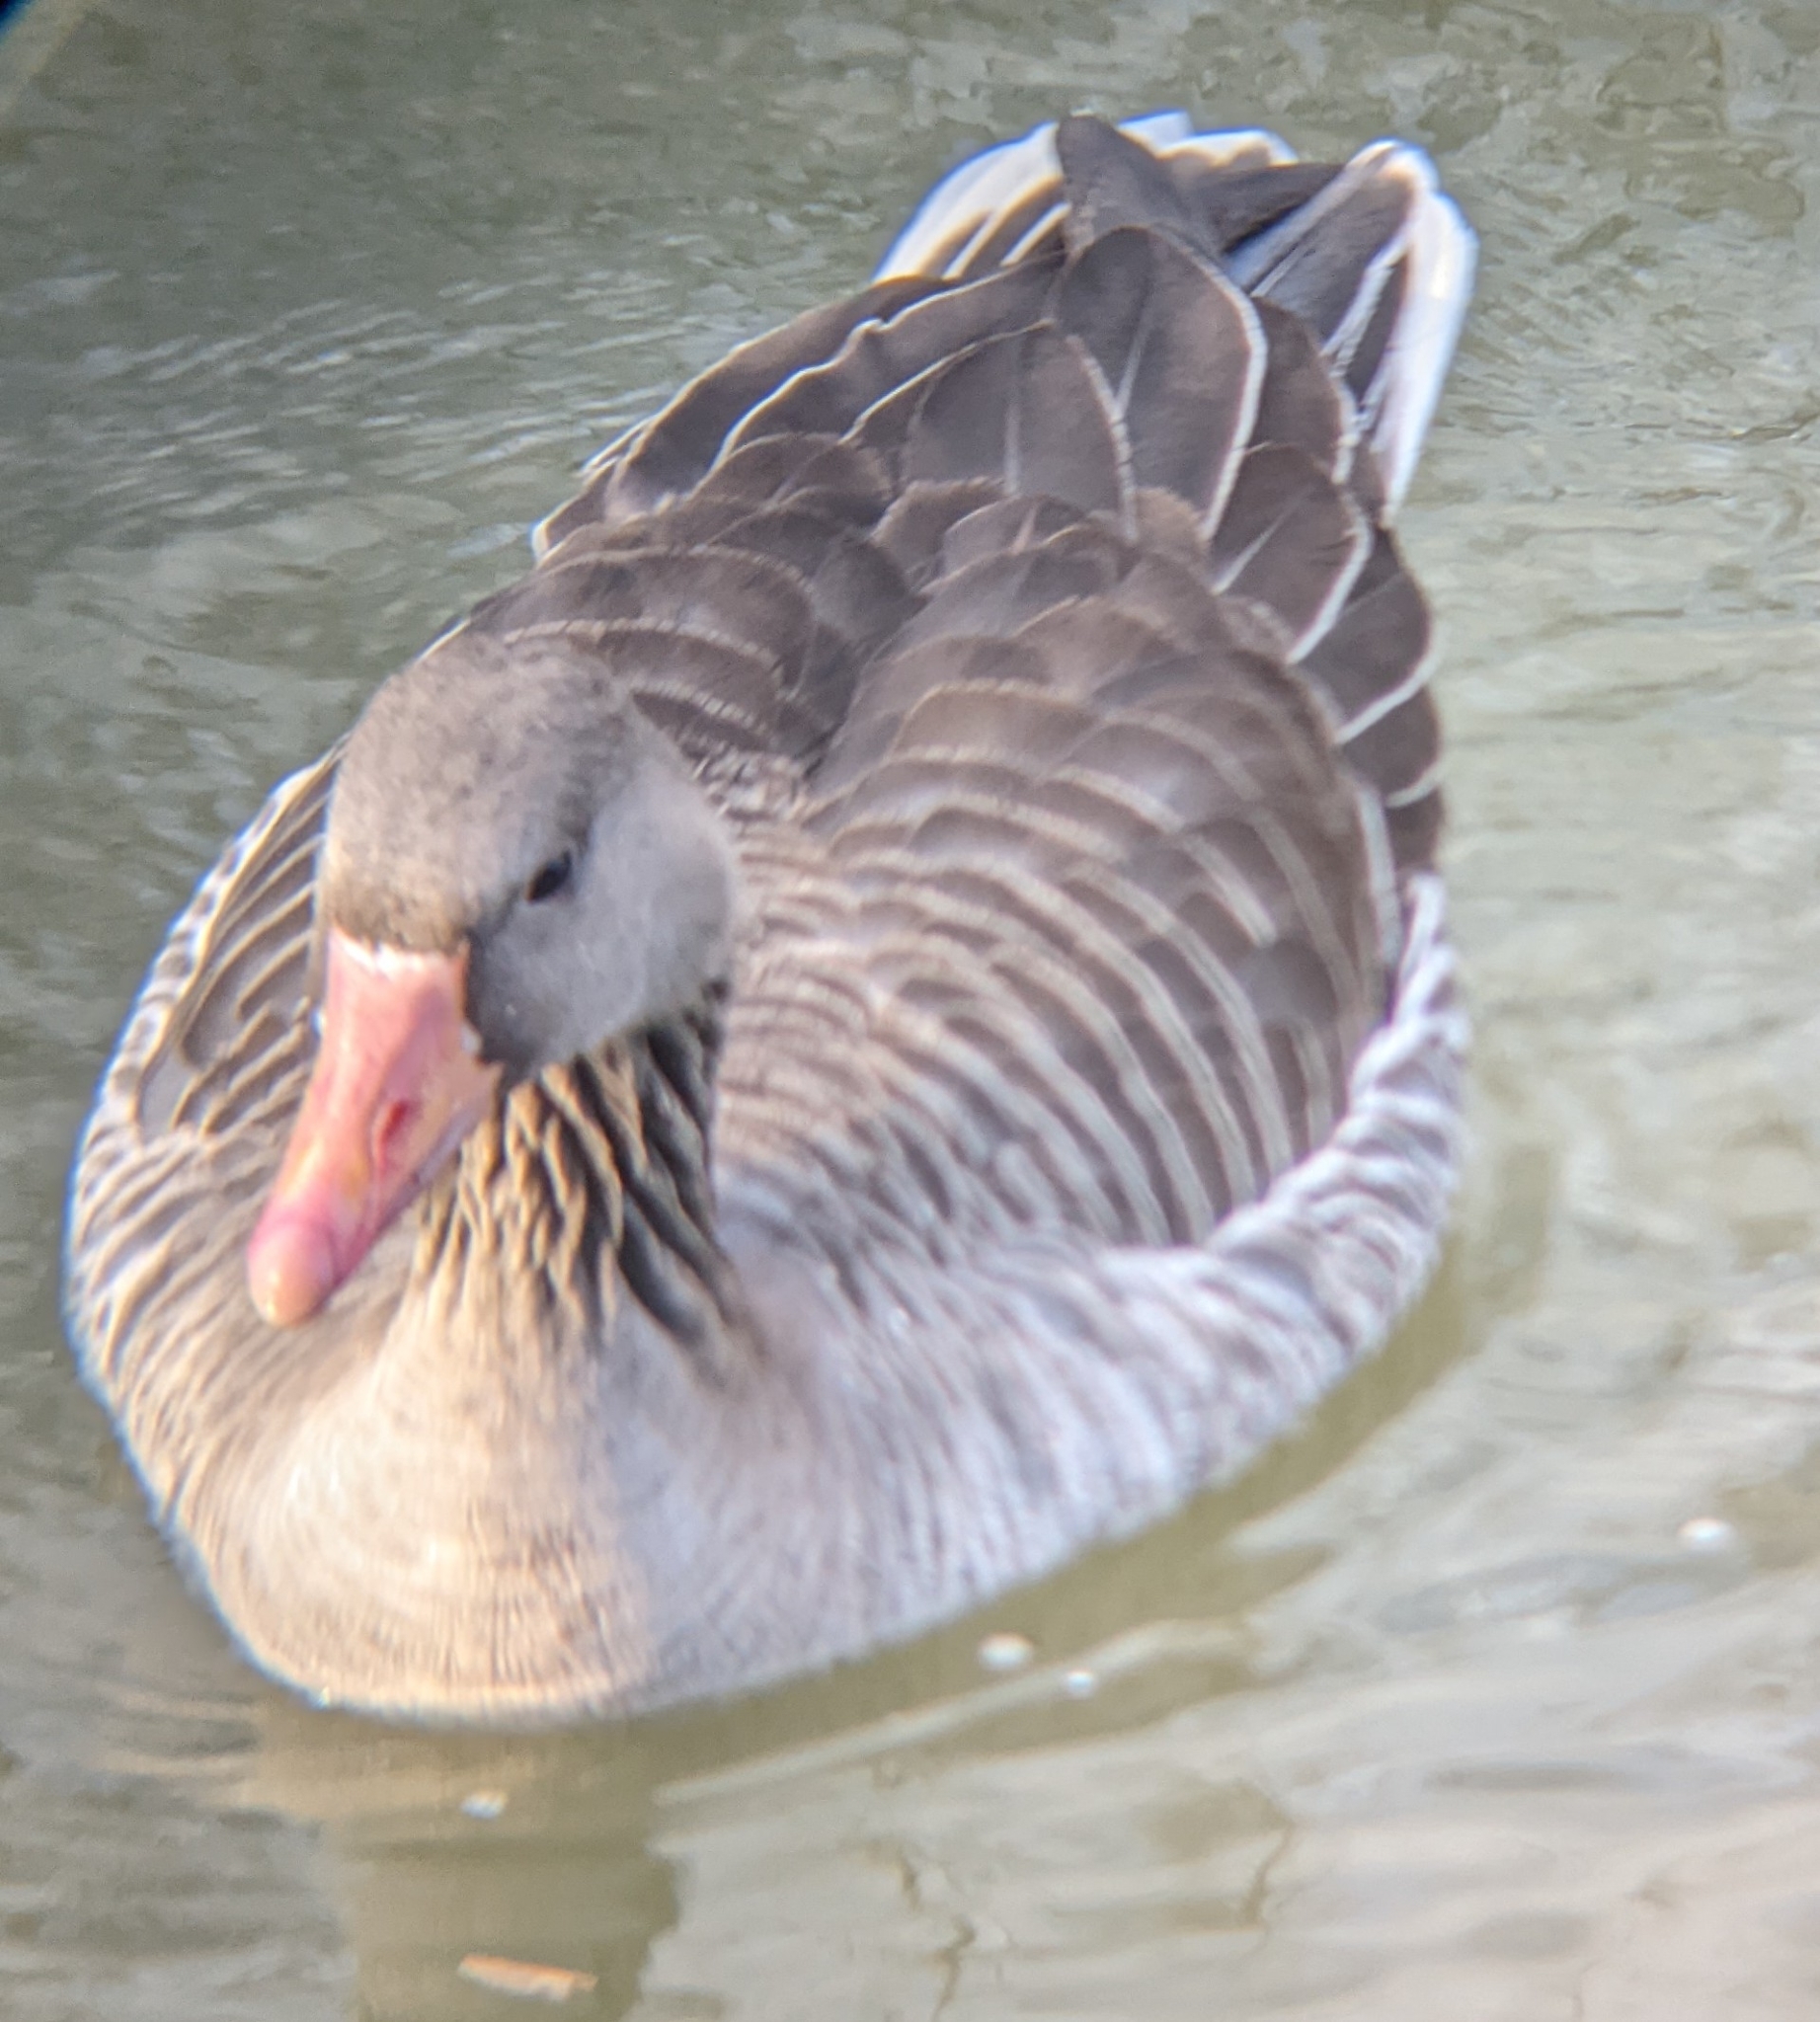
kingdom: Animalia
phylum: Chordata
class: Aves
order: Anseriformes
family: Anatidae
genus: Anser
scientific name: Anser anser
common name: Greylag goose
